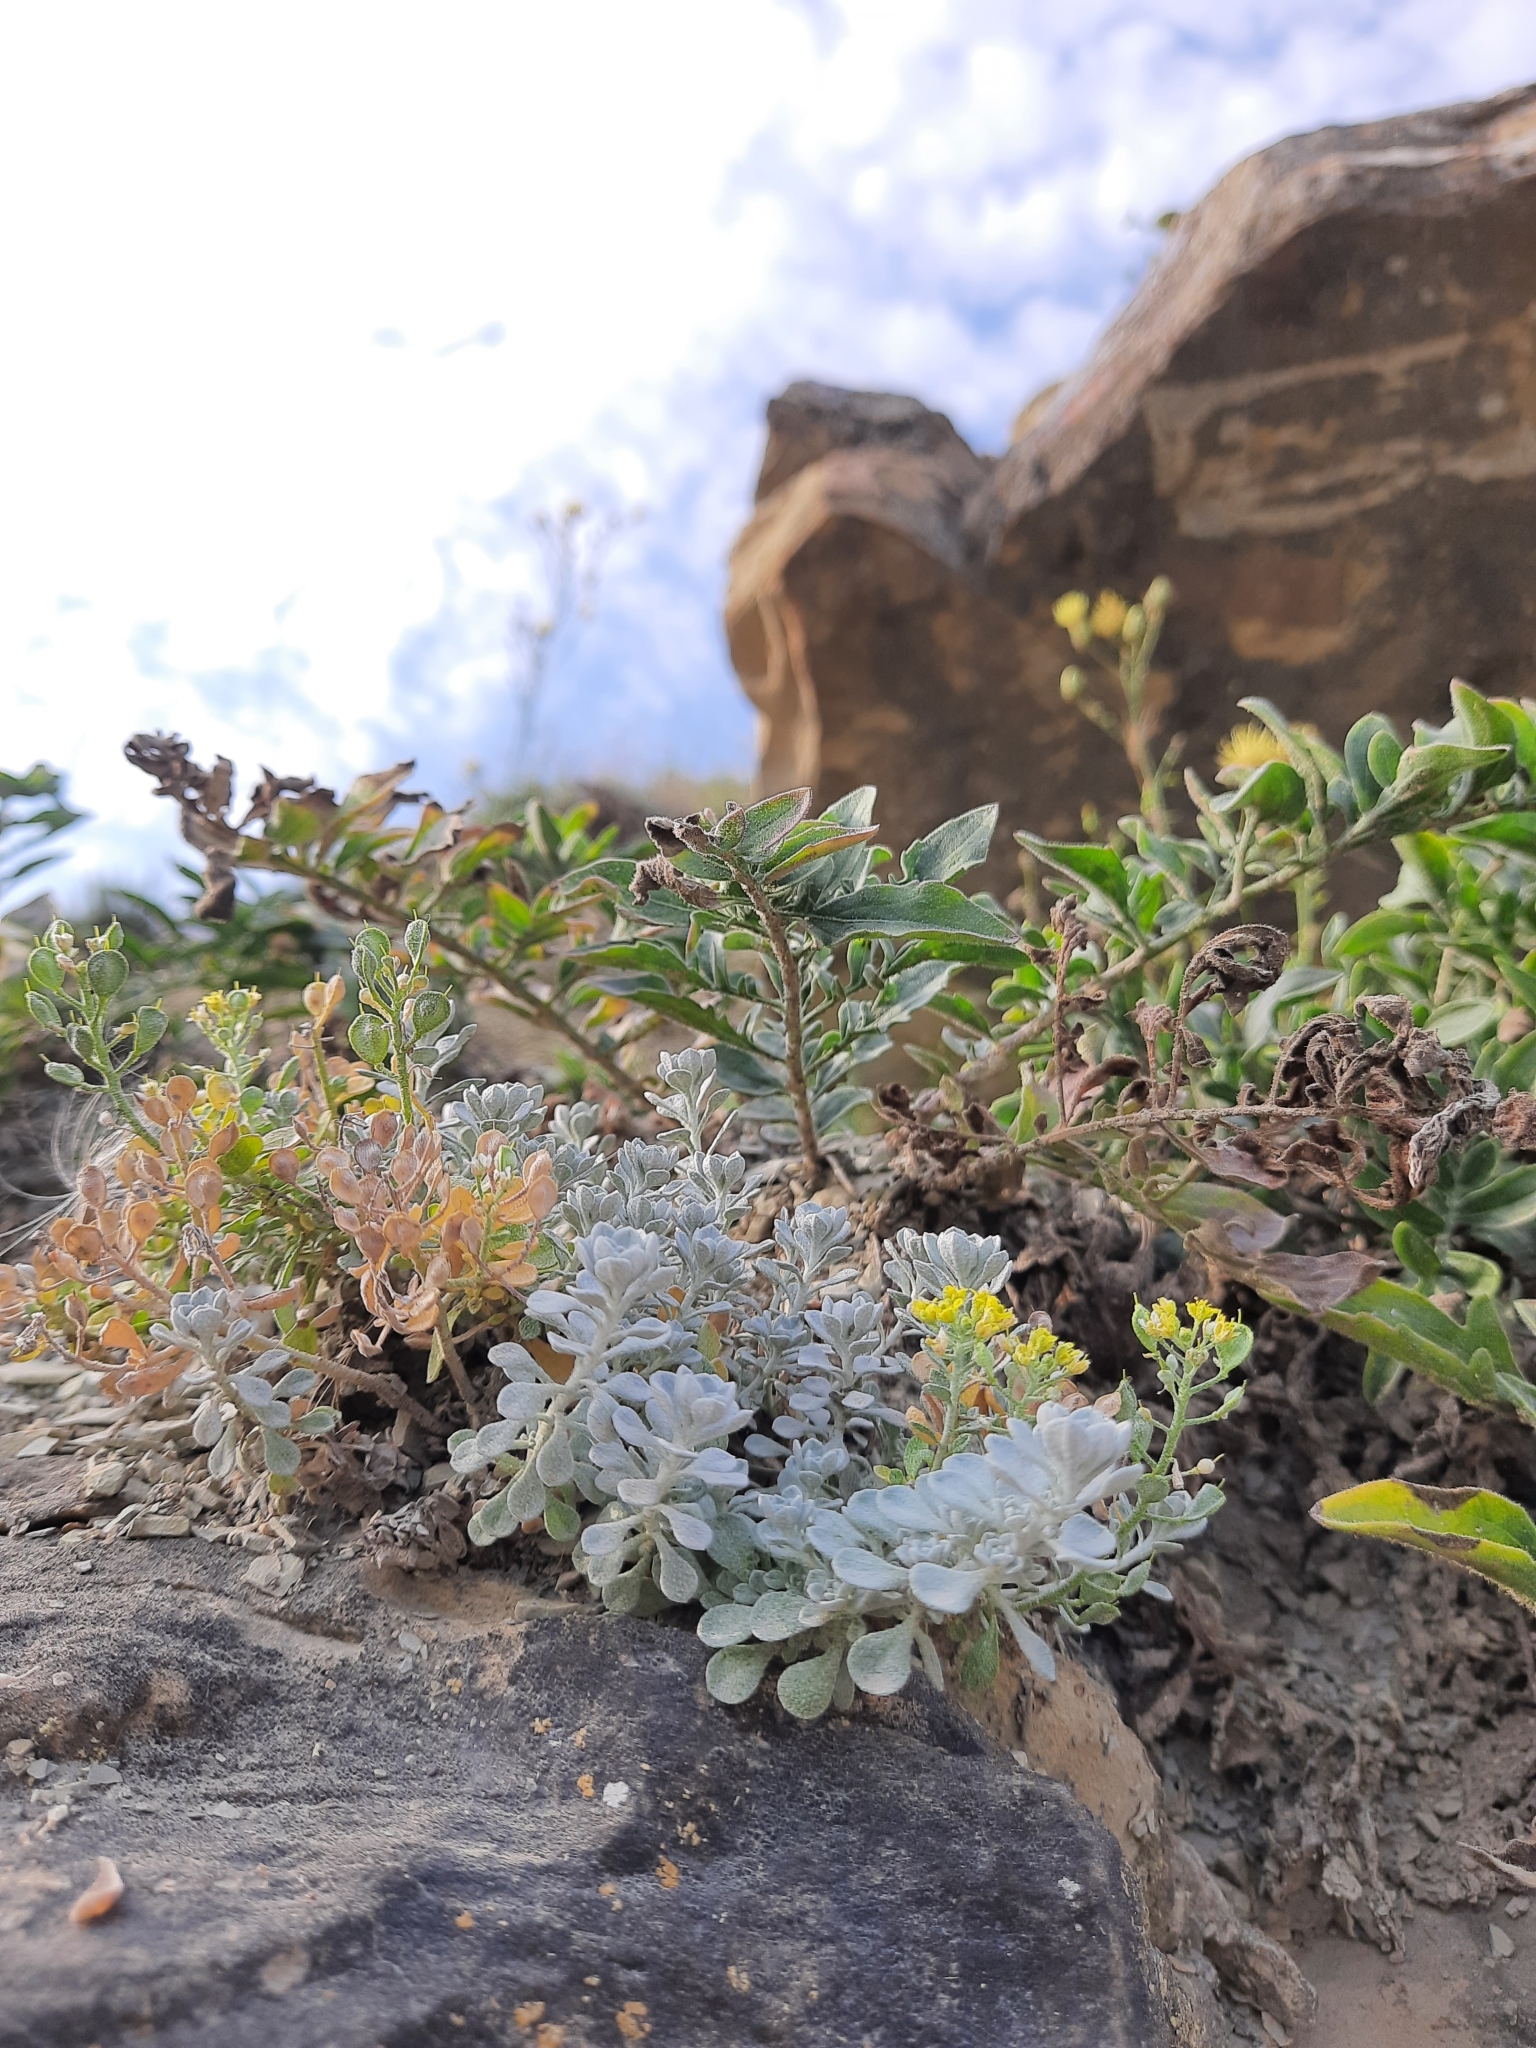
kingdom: Plantae
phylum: Tracheophyta
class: Magnoliopsida
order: Brassicales
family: Brassicaceae
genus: Odontarrhena
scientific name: Odontarrhena obtusifolia
